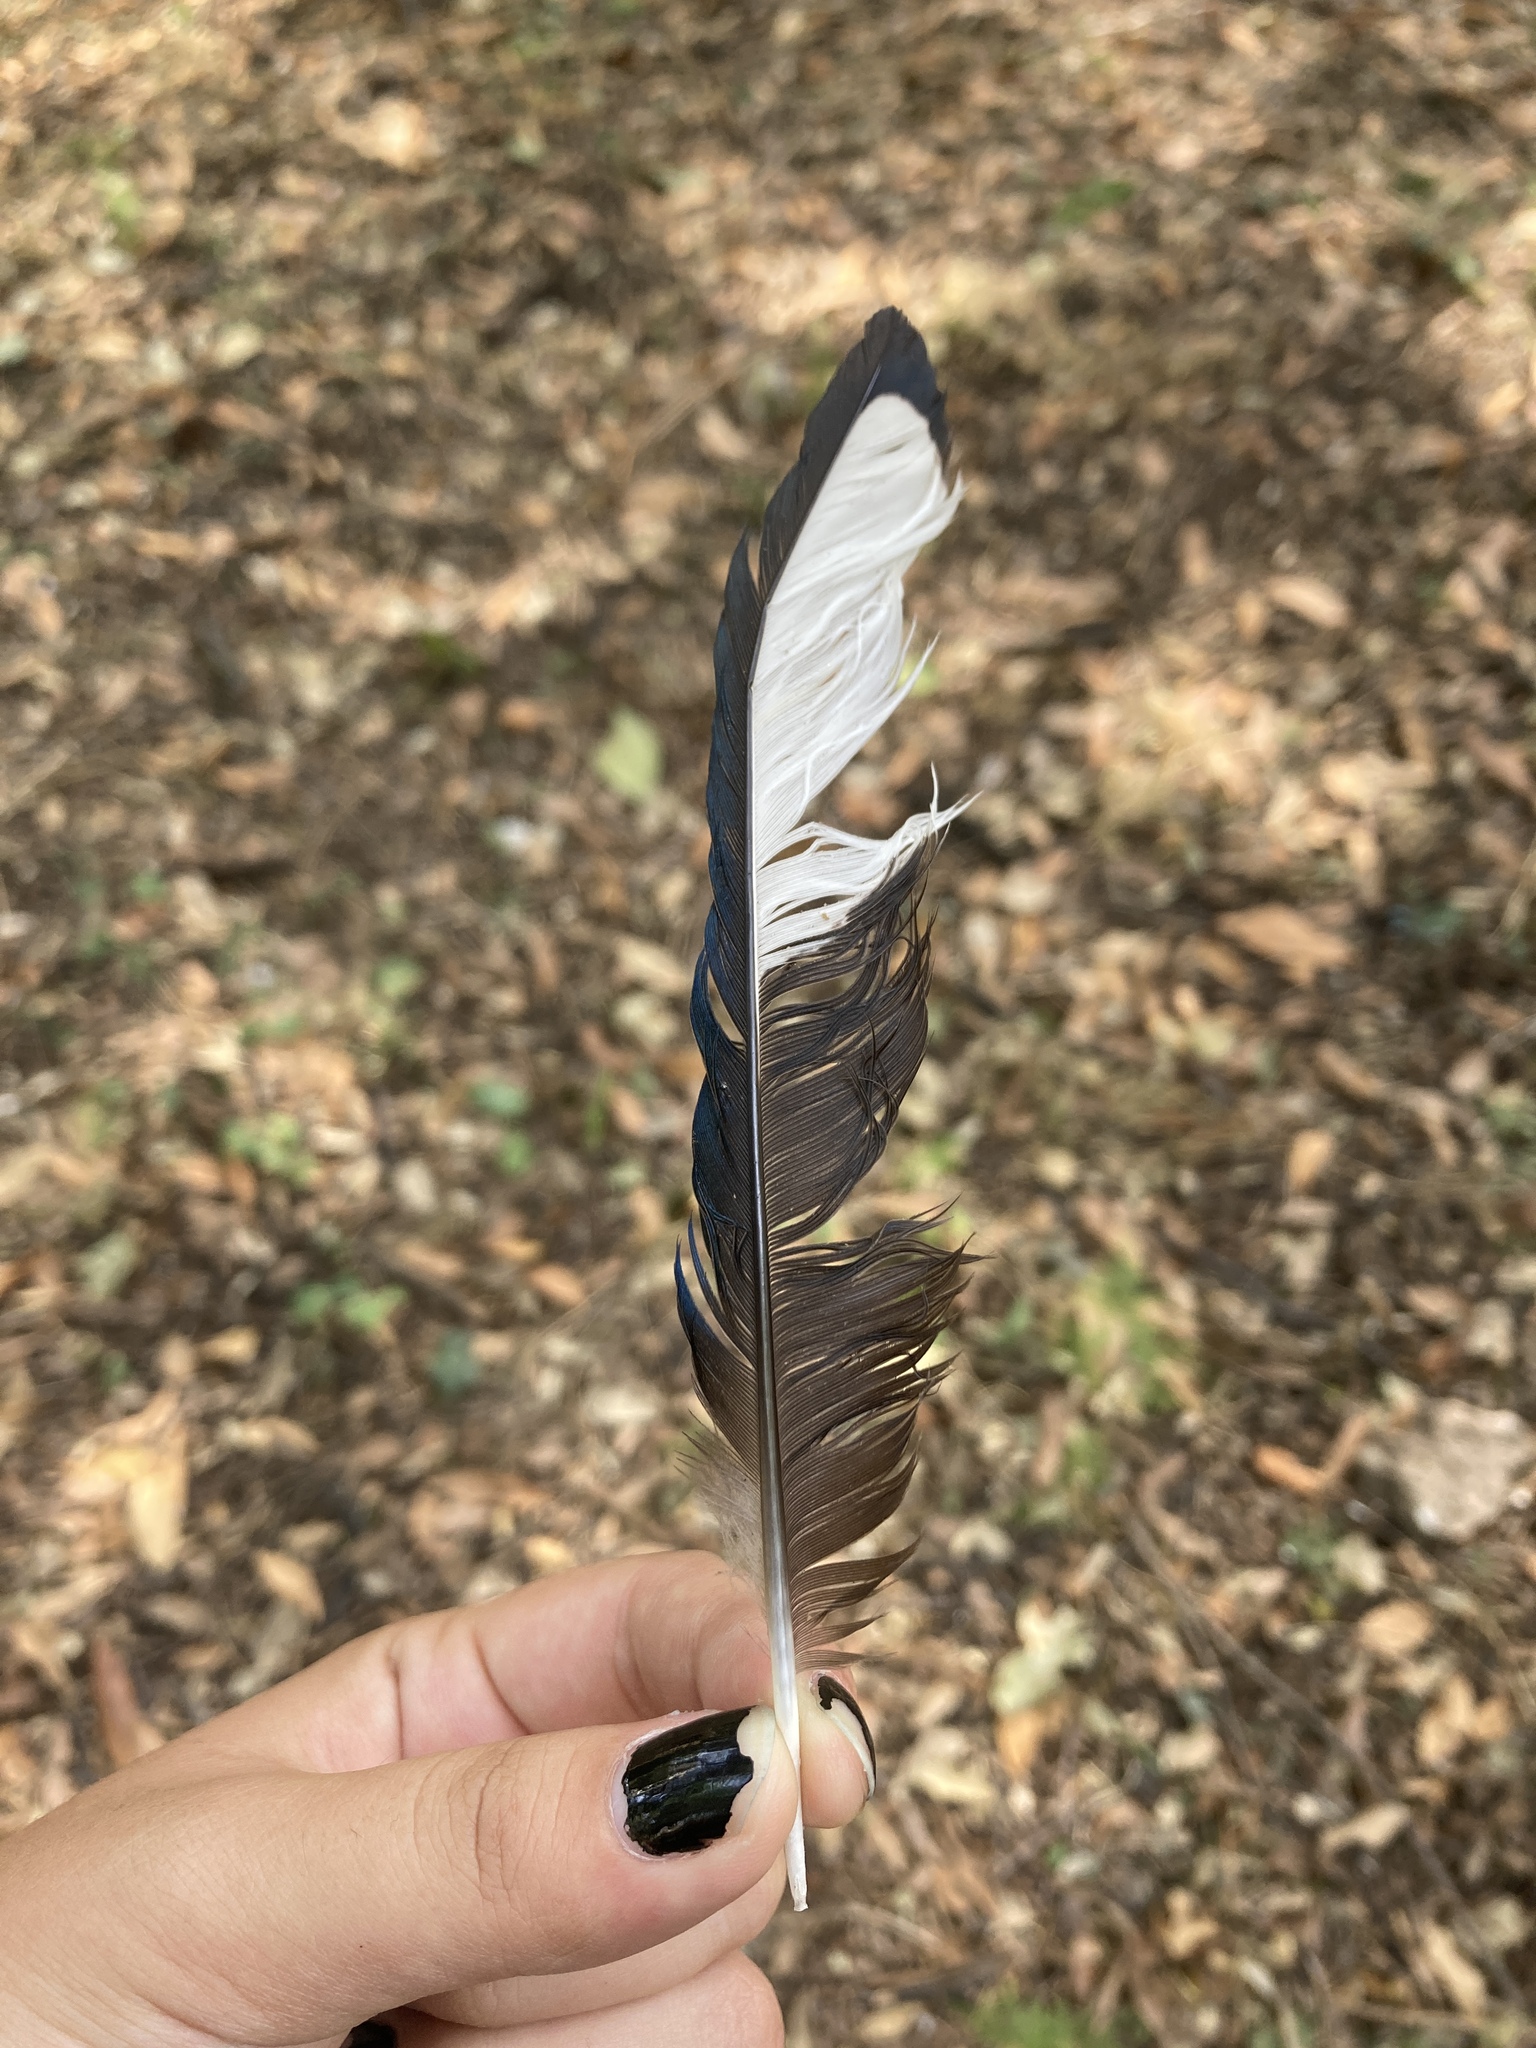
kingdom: Animalia
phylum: Chordata
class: Aves
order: Passeriformes
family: Corvidae
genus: Pica
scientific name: Pica pica
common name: Eurasian magpie
